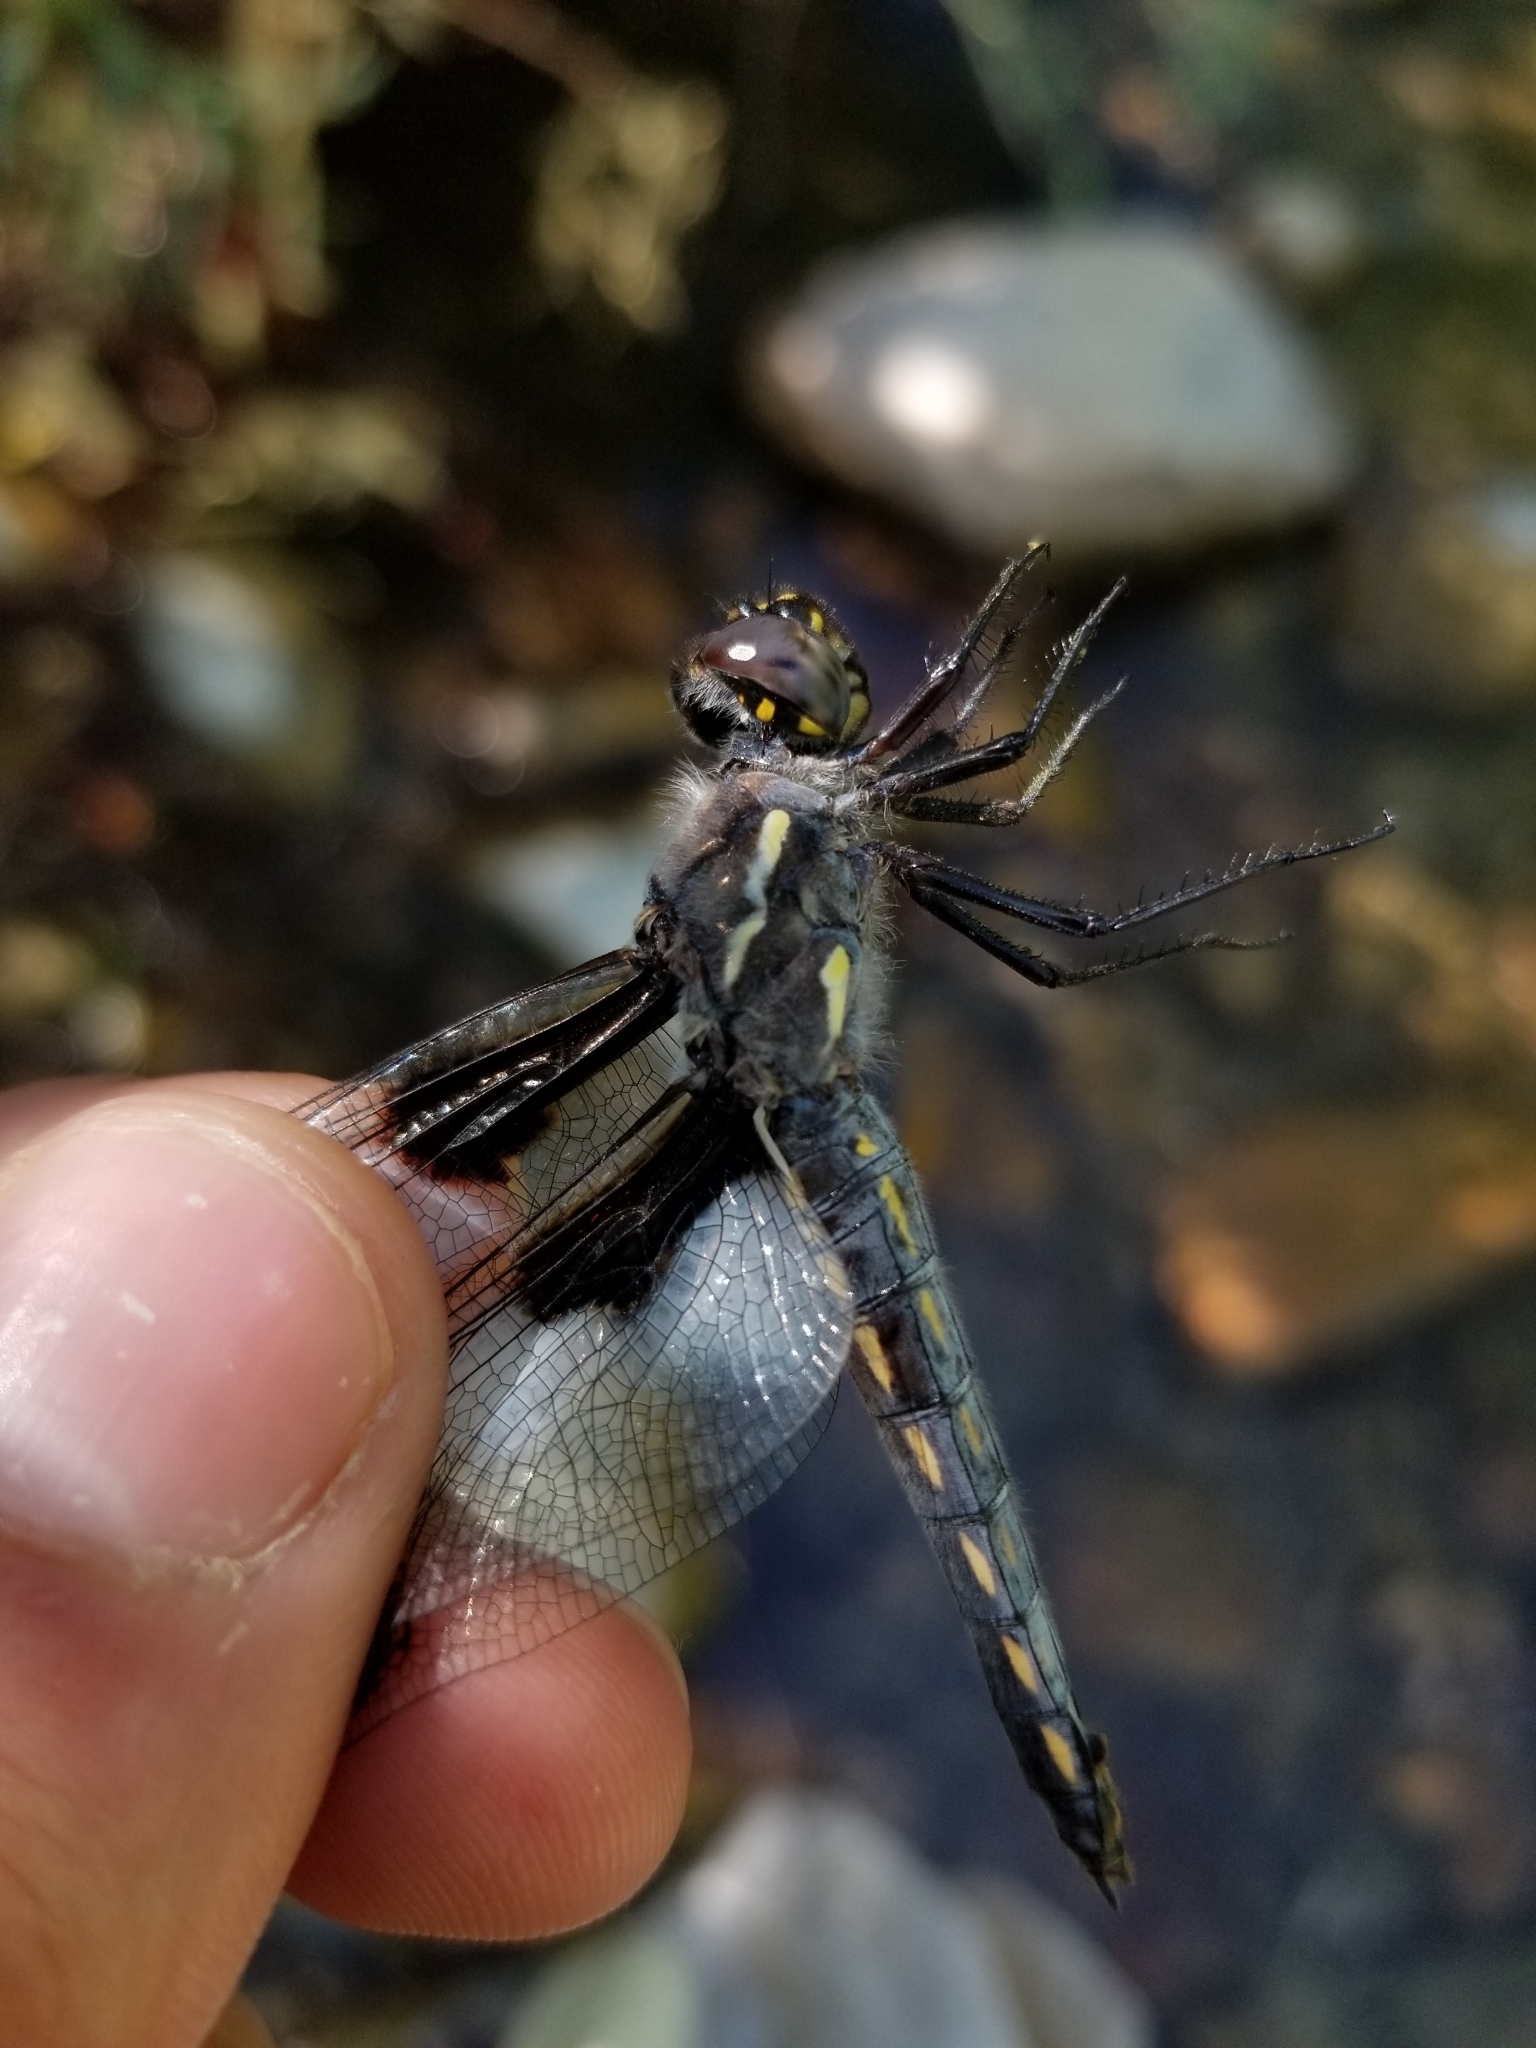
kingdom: Animalia
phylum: Arthropoda
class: Insecta
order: Odonata
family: Libellulidae
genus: Libellula
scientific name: Libellula forensis
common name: Eight-spotted skimmer
